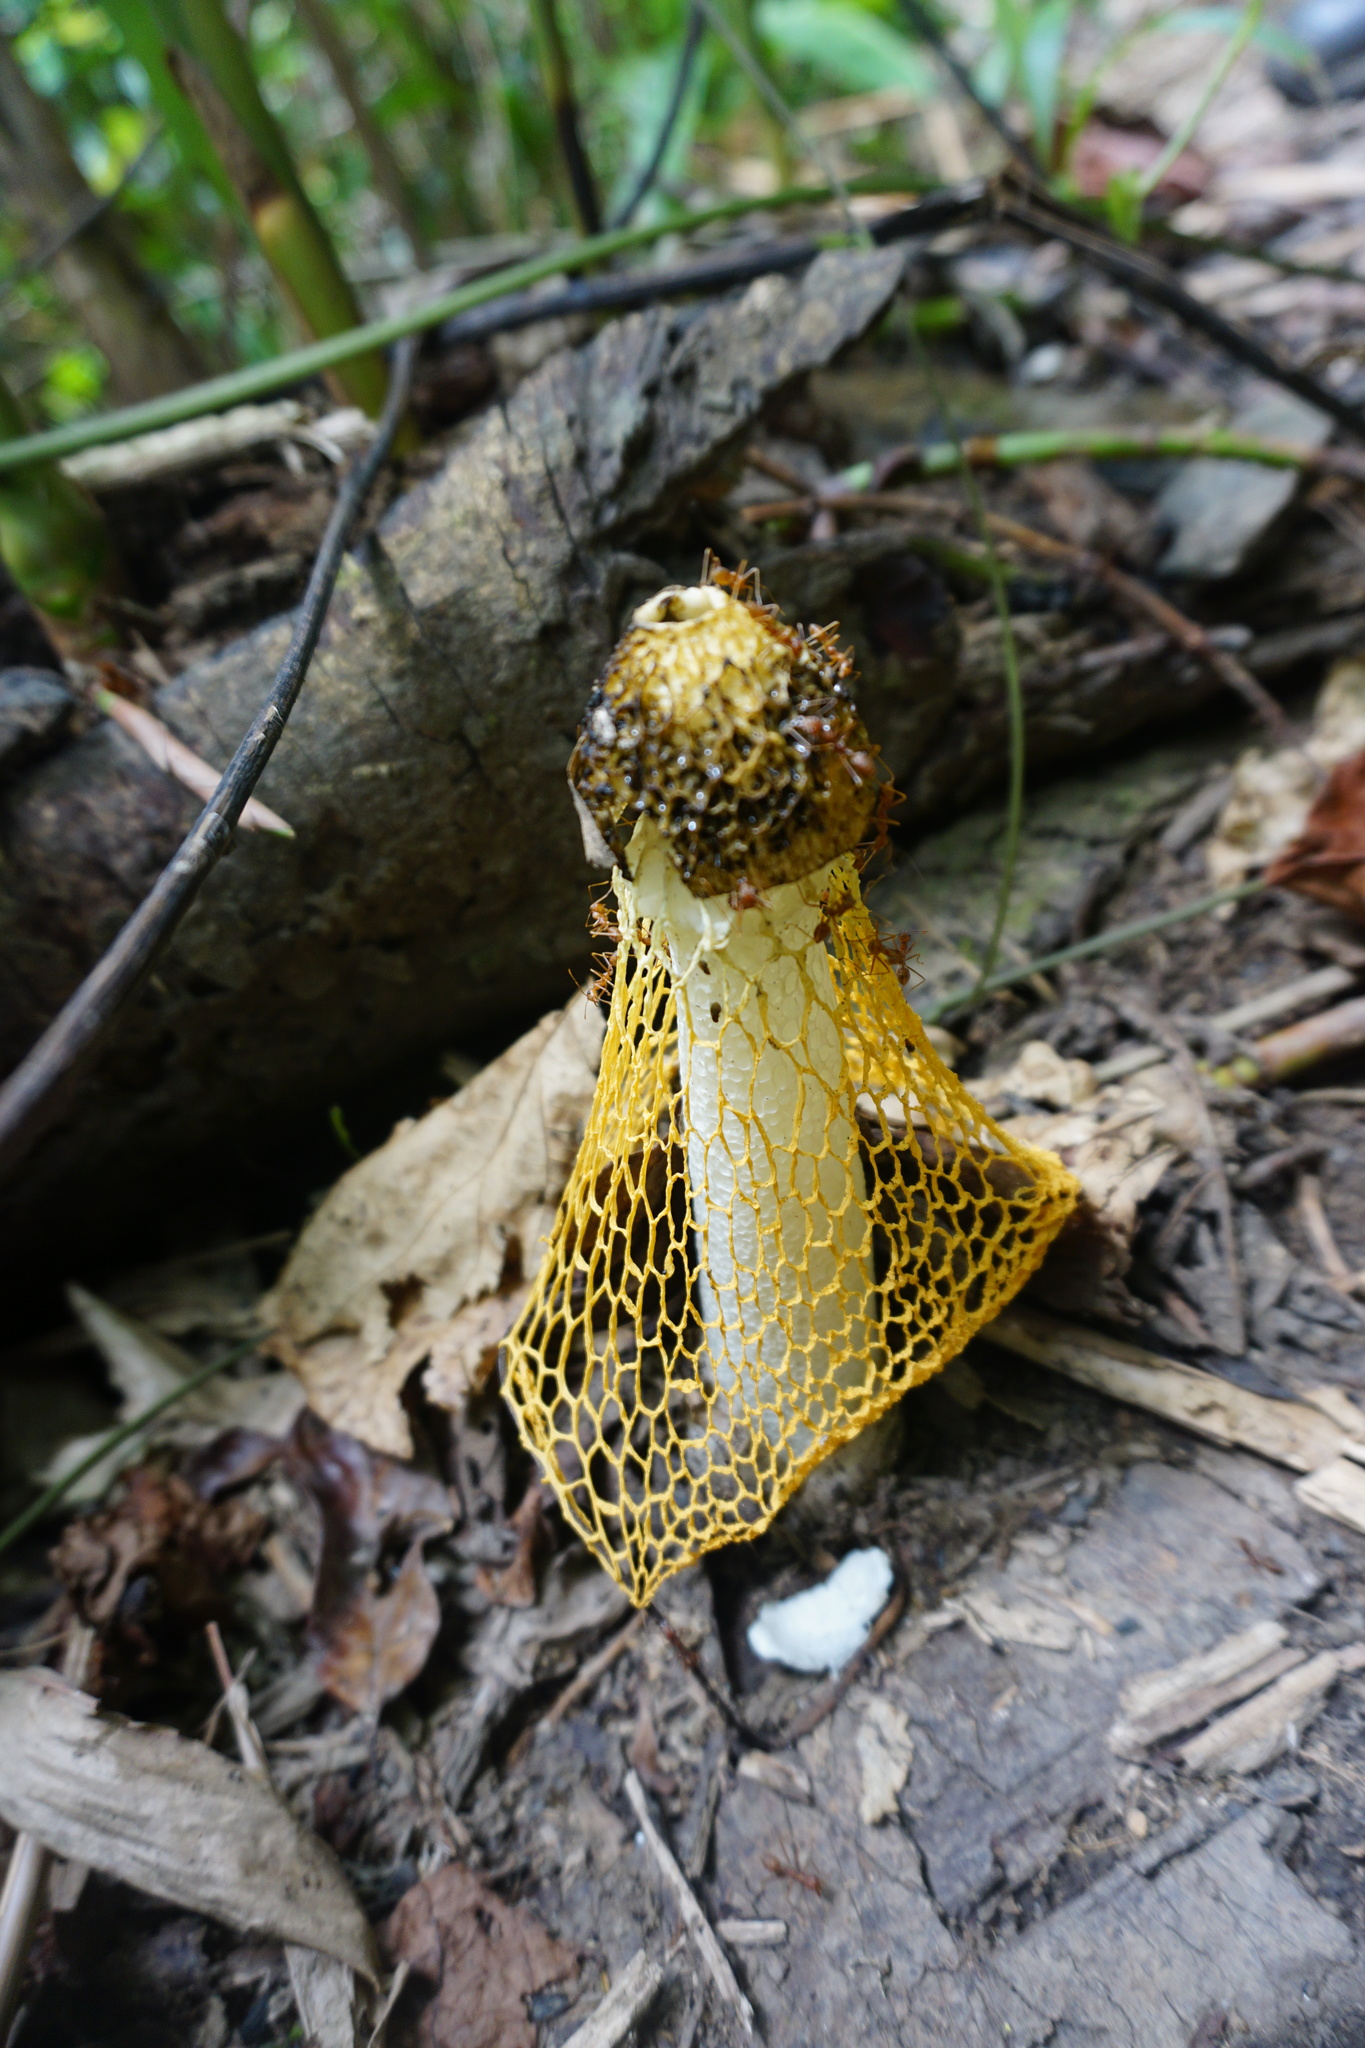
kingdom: Fungi
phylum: Basidiomycota
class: Agaricomycetes
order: Phallales
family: Phallaceae
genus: Phallus
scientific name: Phallus luteus
